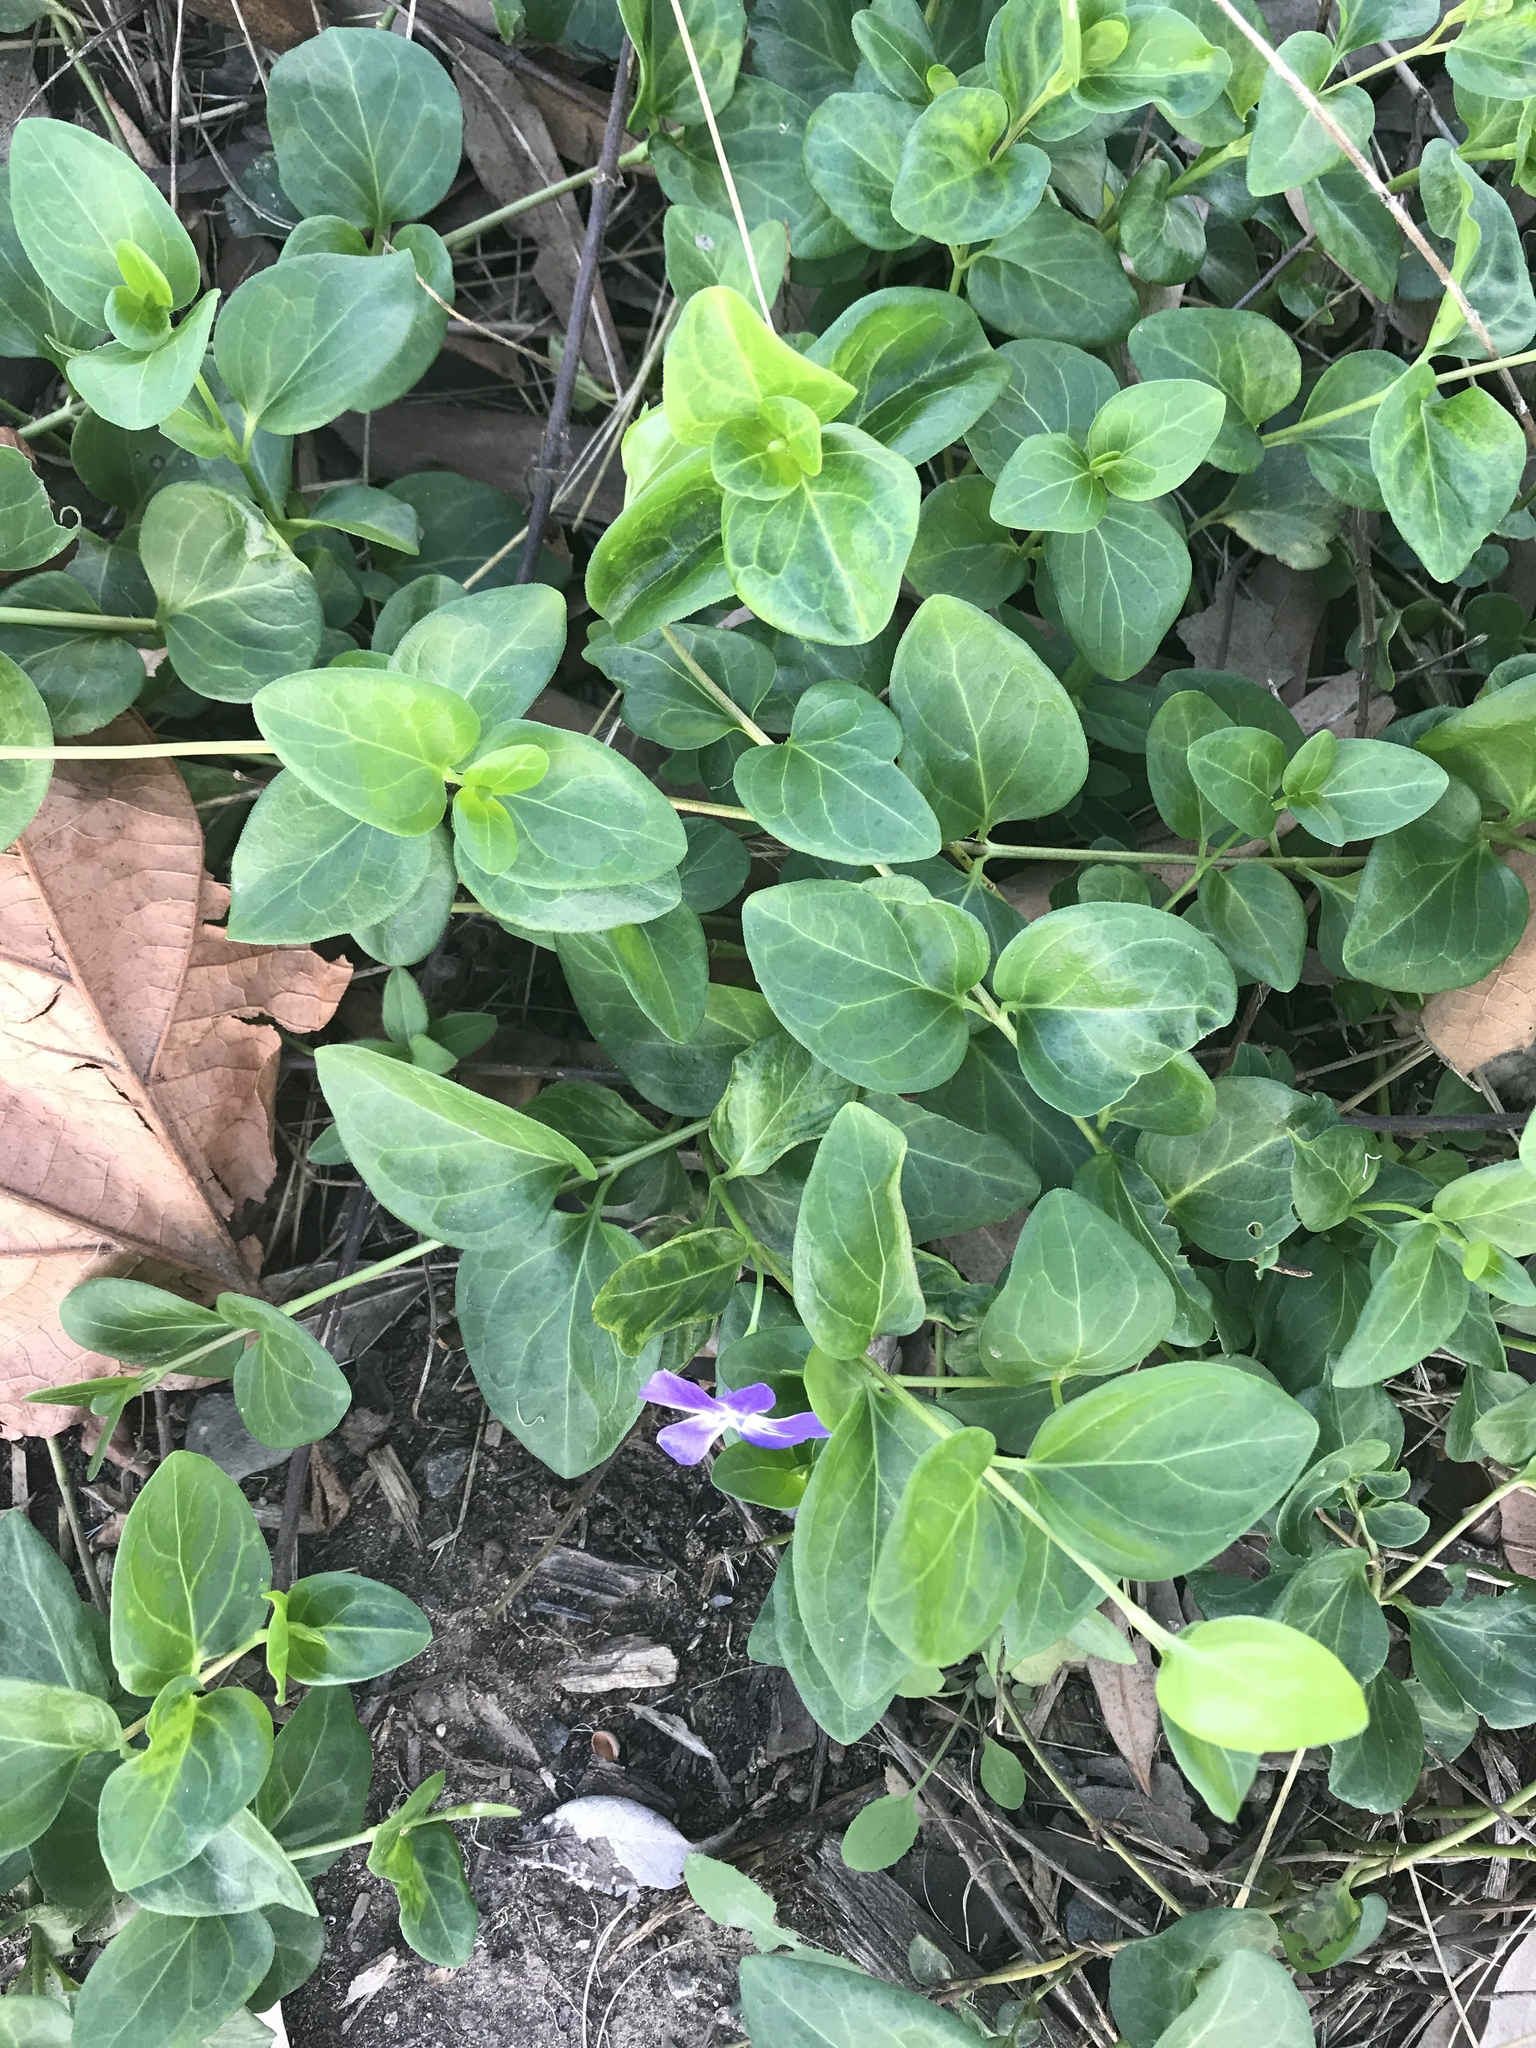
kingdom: Plantae
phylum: Tracheophyta
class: Magnoliopsida
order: Gentianales
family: Apocynaceae
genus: Vinca
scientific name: Vinca major
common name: Greater periwinkle
